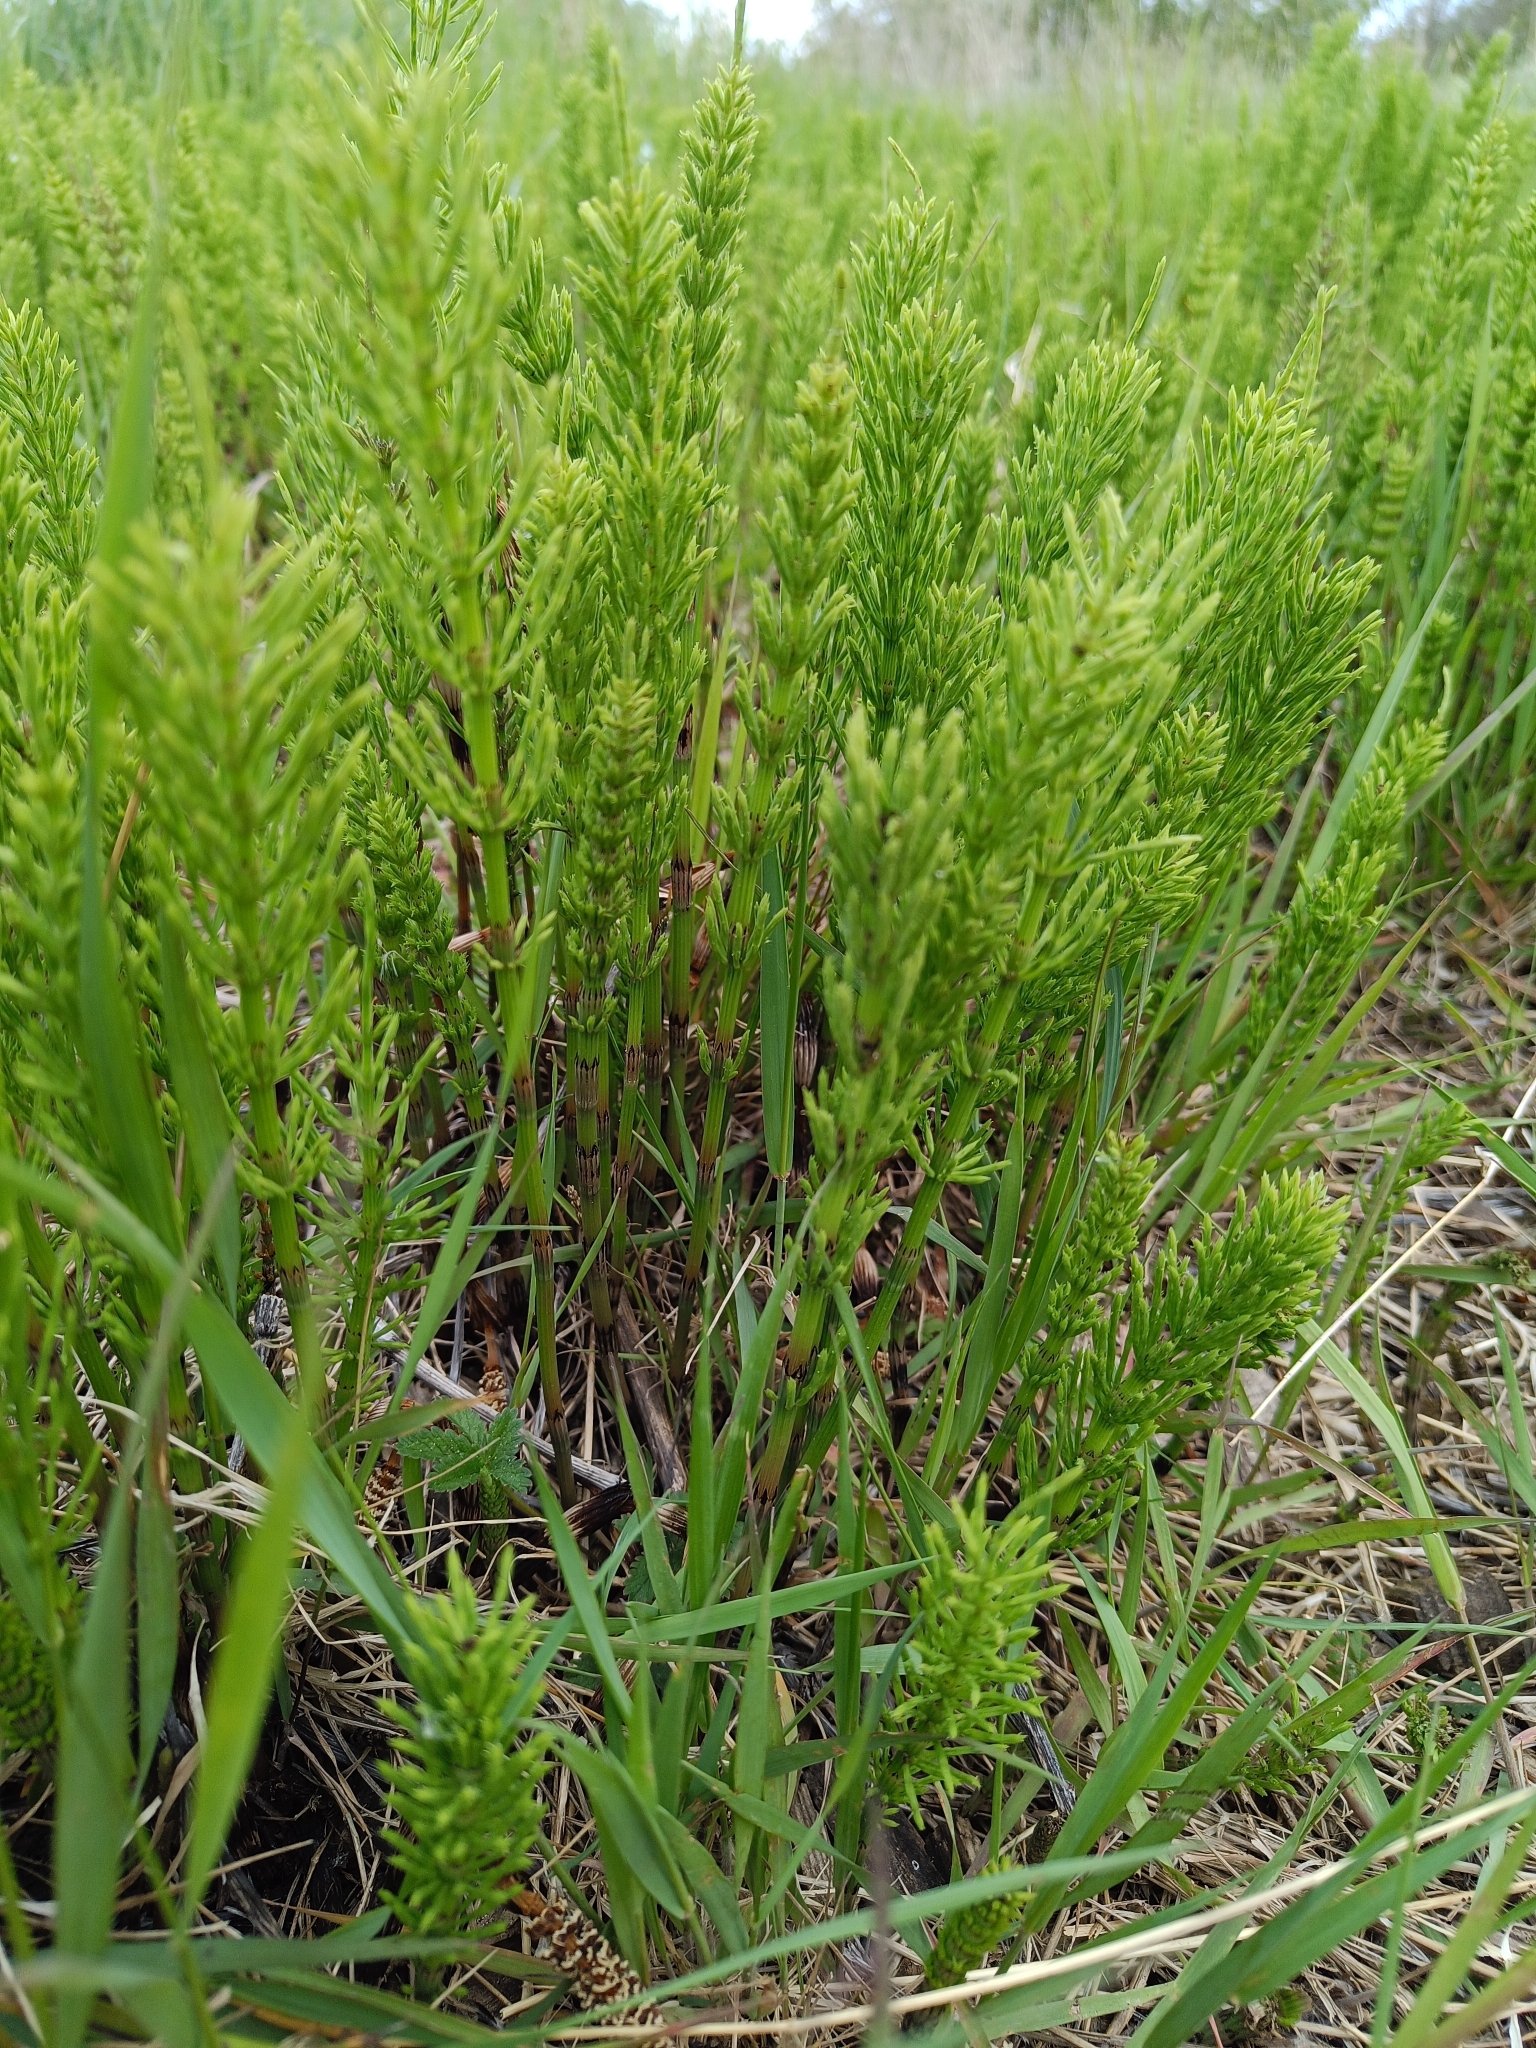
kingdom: Plantae
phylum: Tracheophyta
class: Polypodiopsida
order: Equisetales
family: Equisetaceae
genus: Equisetum
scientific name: Equisetum arvense
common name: Field horsetail
